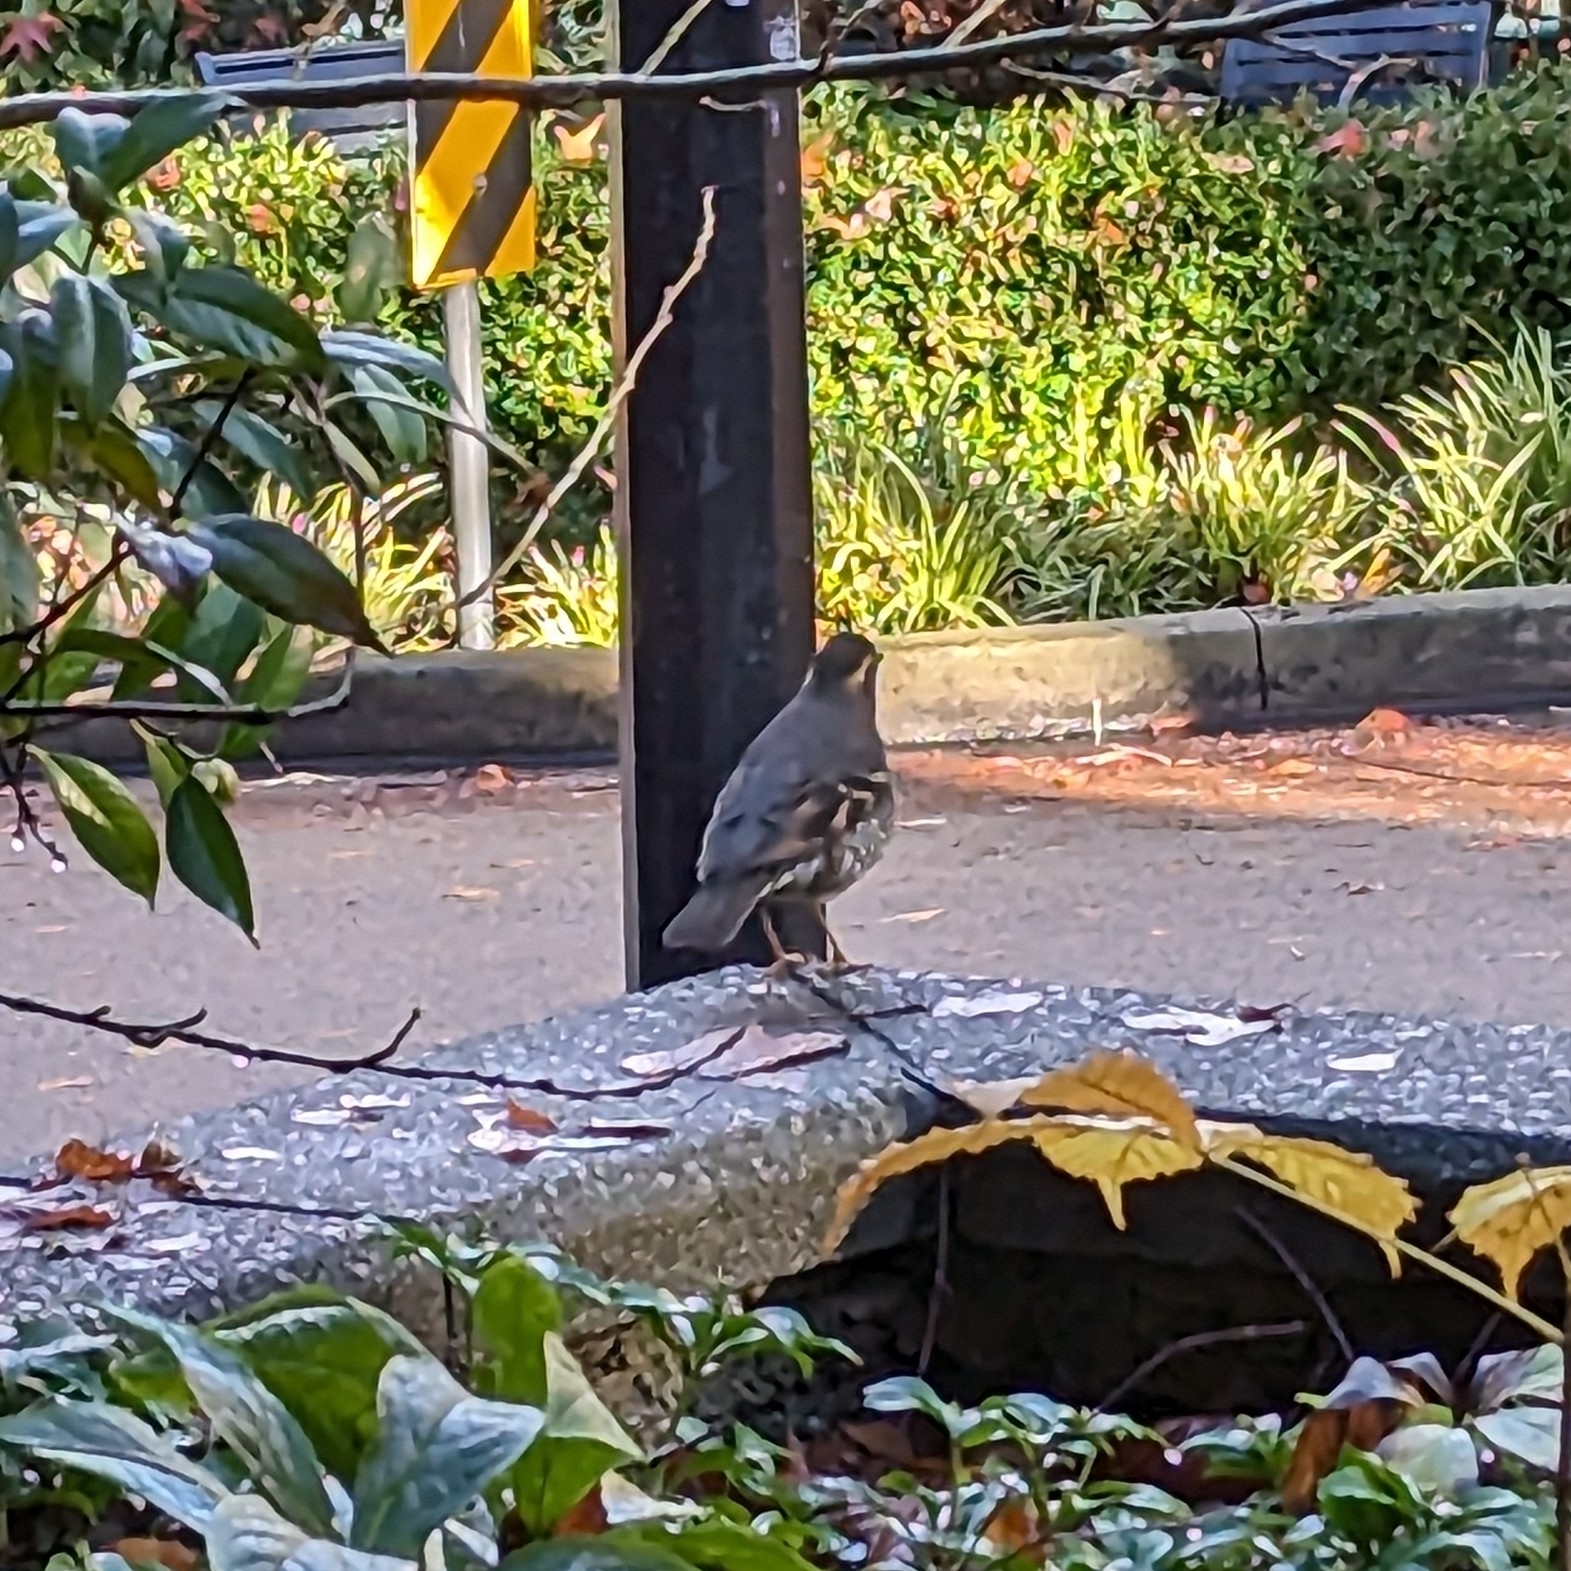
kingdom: Animalia
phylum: Chordata
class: Aves
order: Passeriformes
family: Turdidae
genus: Ixoreus
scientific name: Ixoreus naevius
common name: Varied thrush
